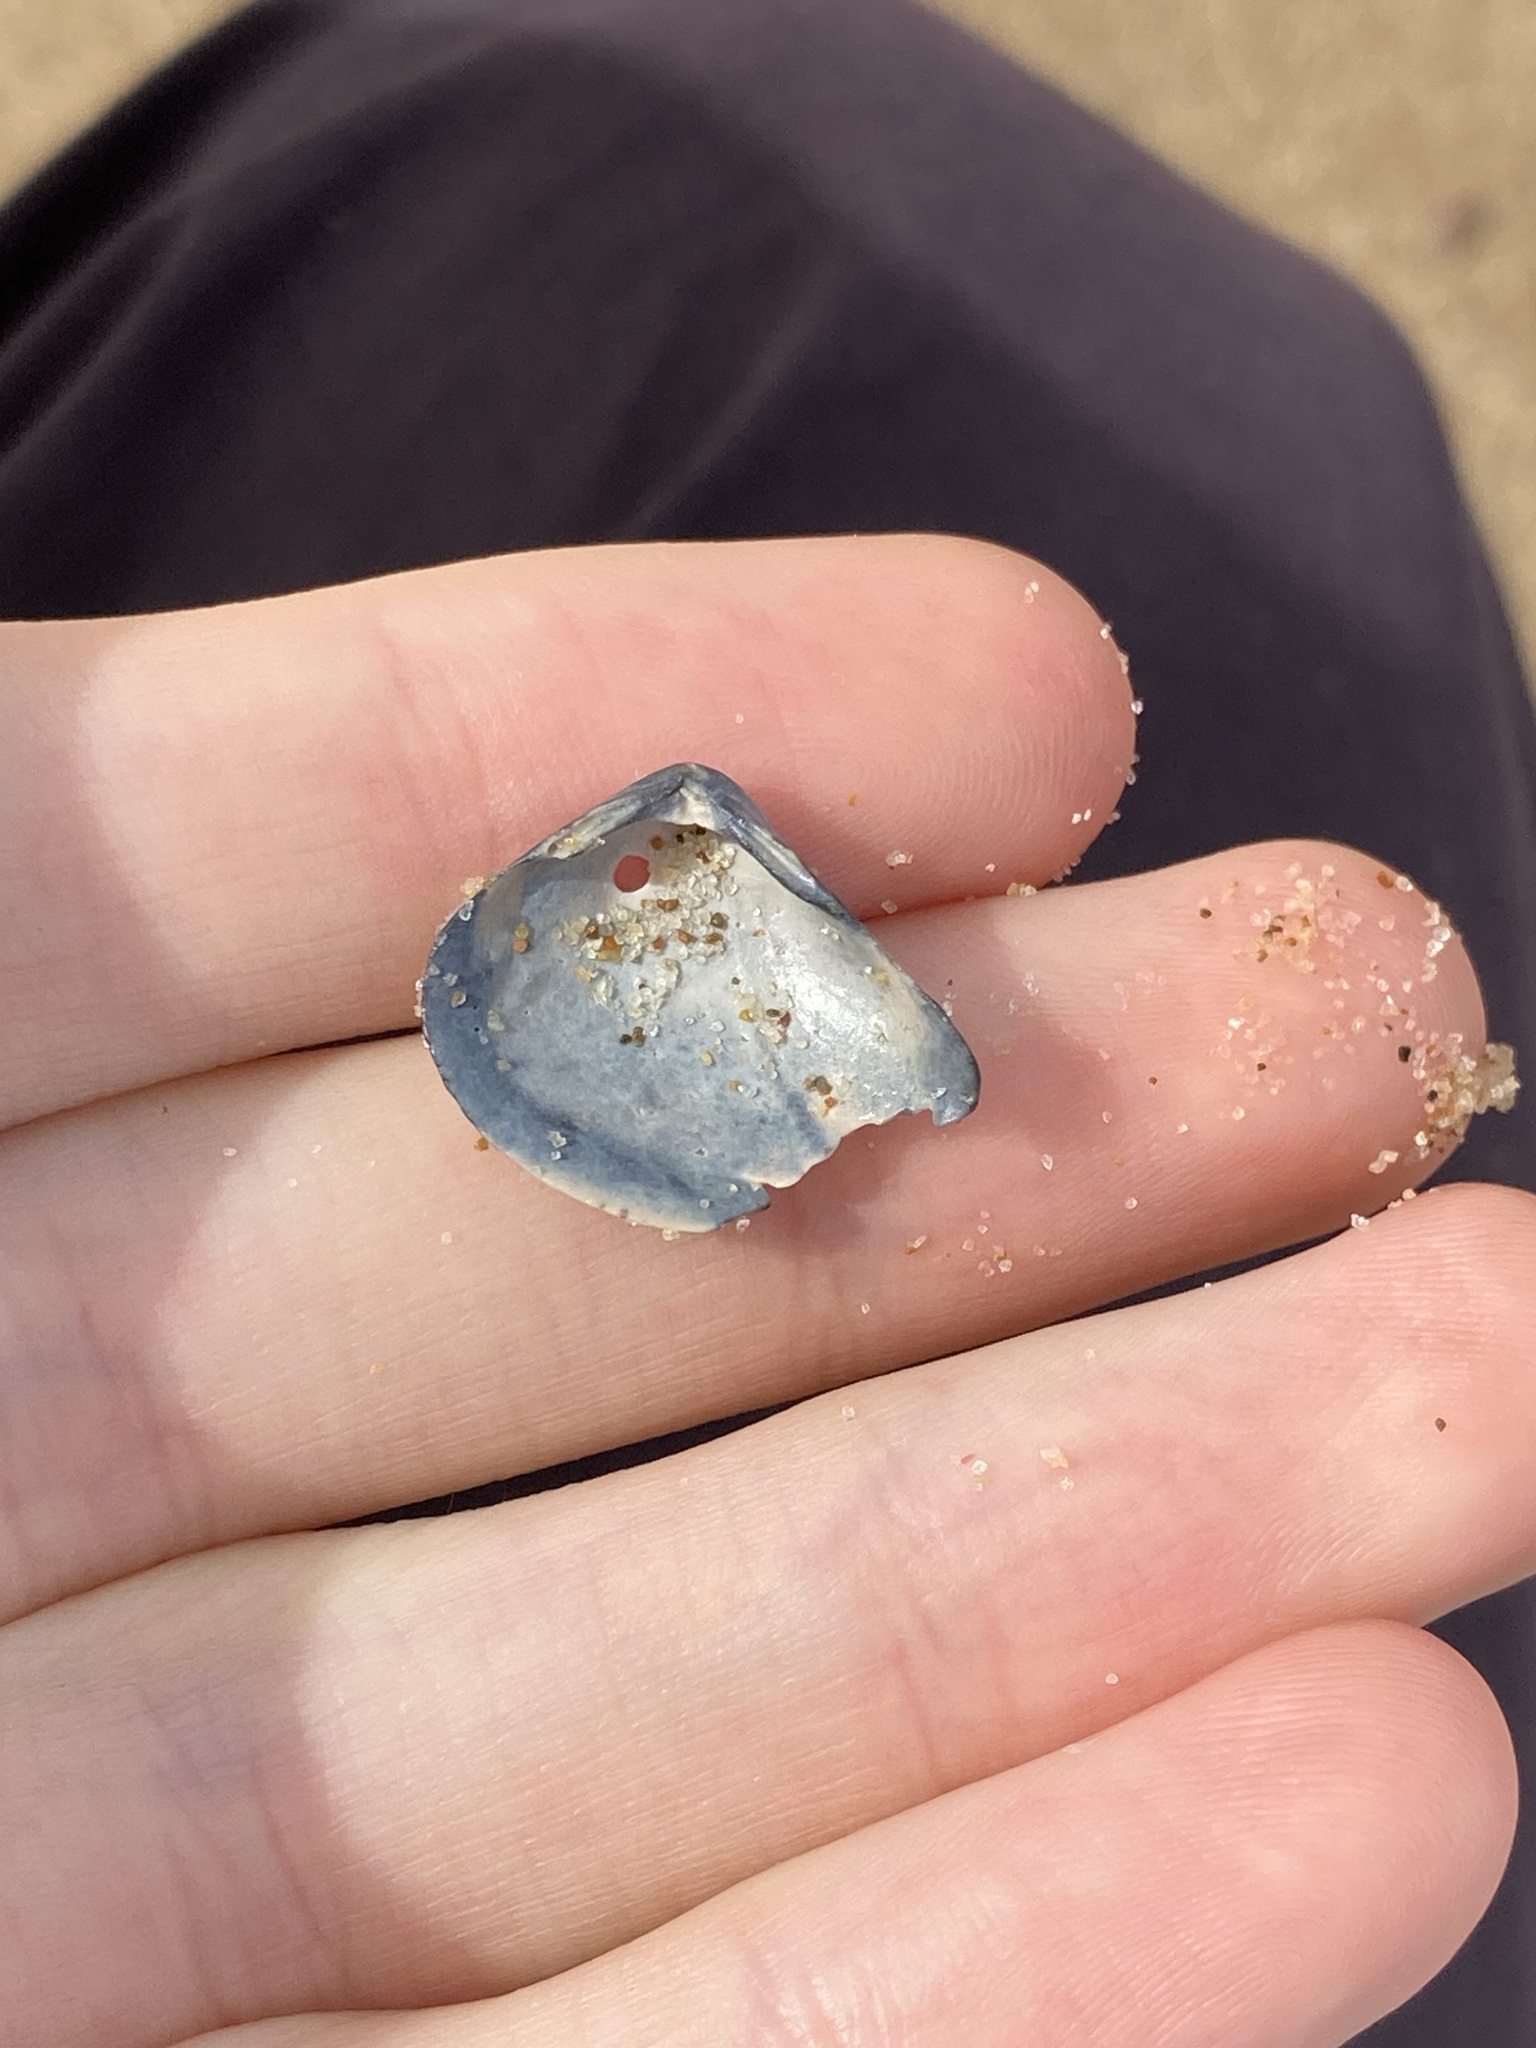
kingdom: Animalia
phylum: Mollusca
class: Bivalvia
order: Venerida
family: Mactridae
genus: Spisula
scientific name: Spisula trigonella
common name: Trigonal mactra
